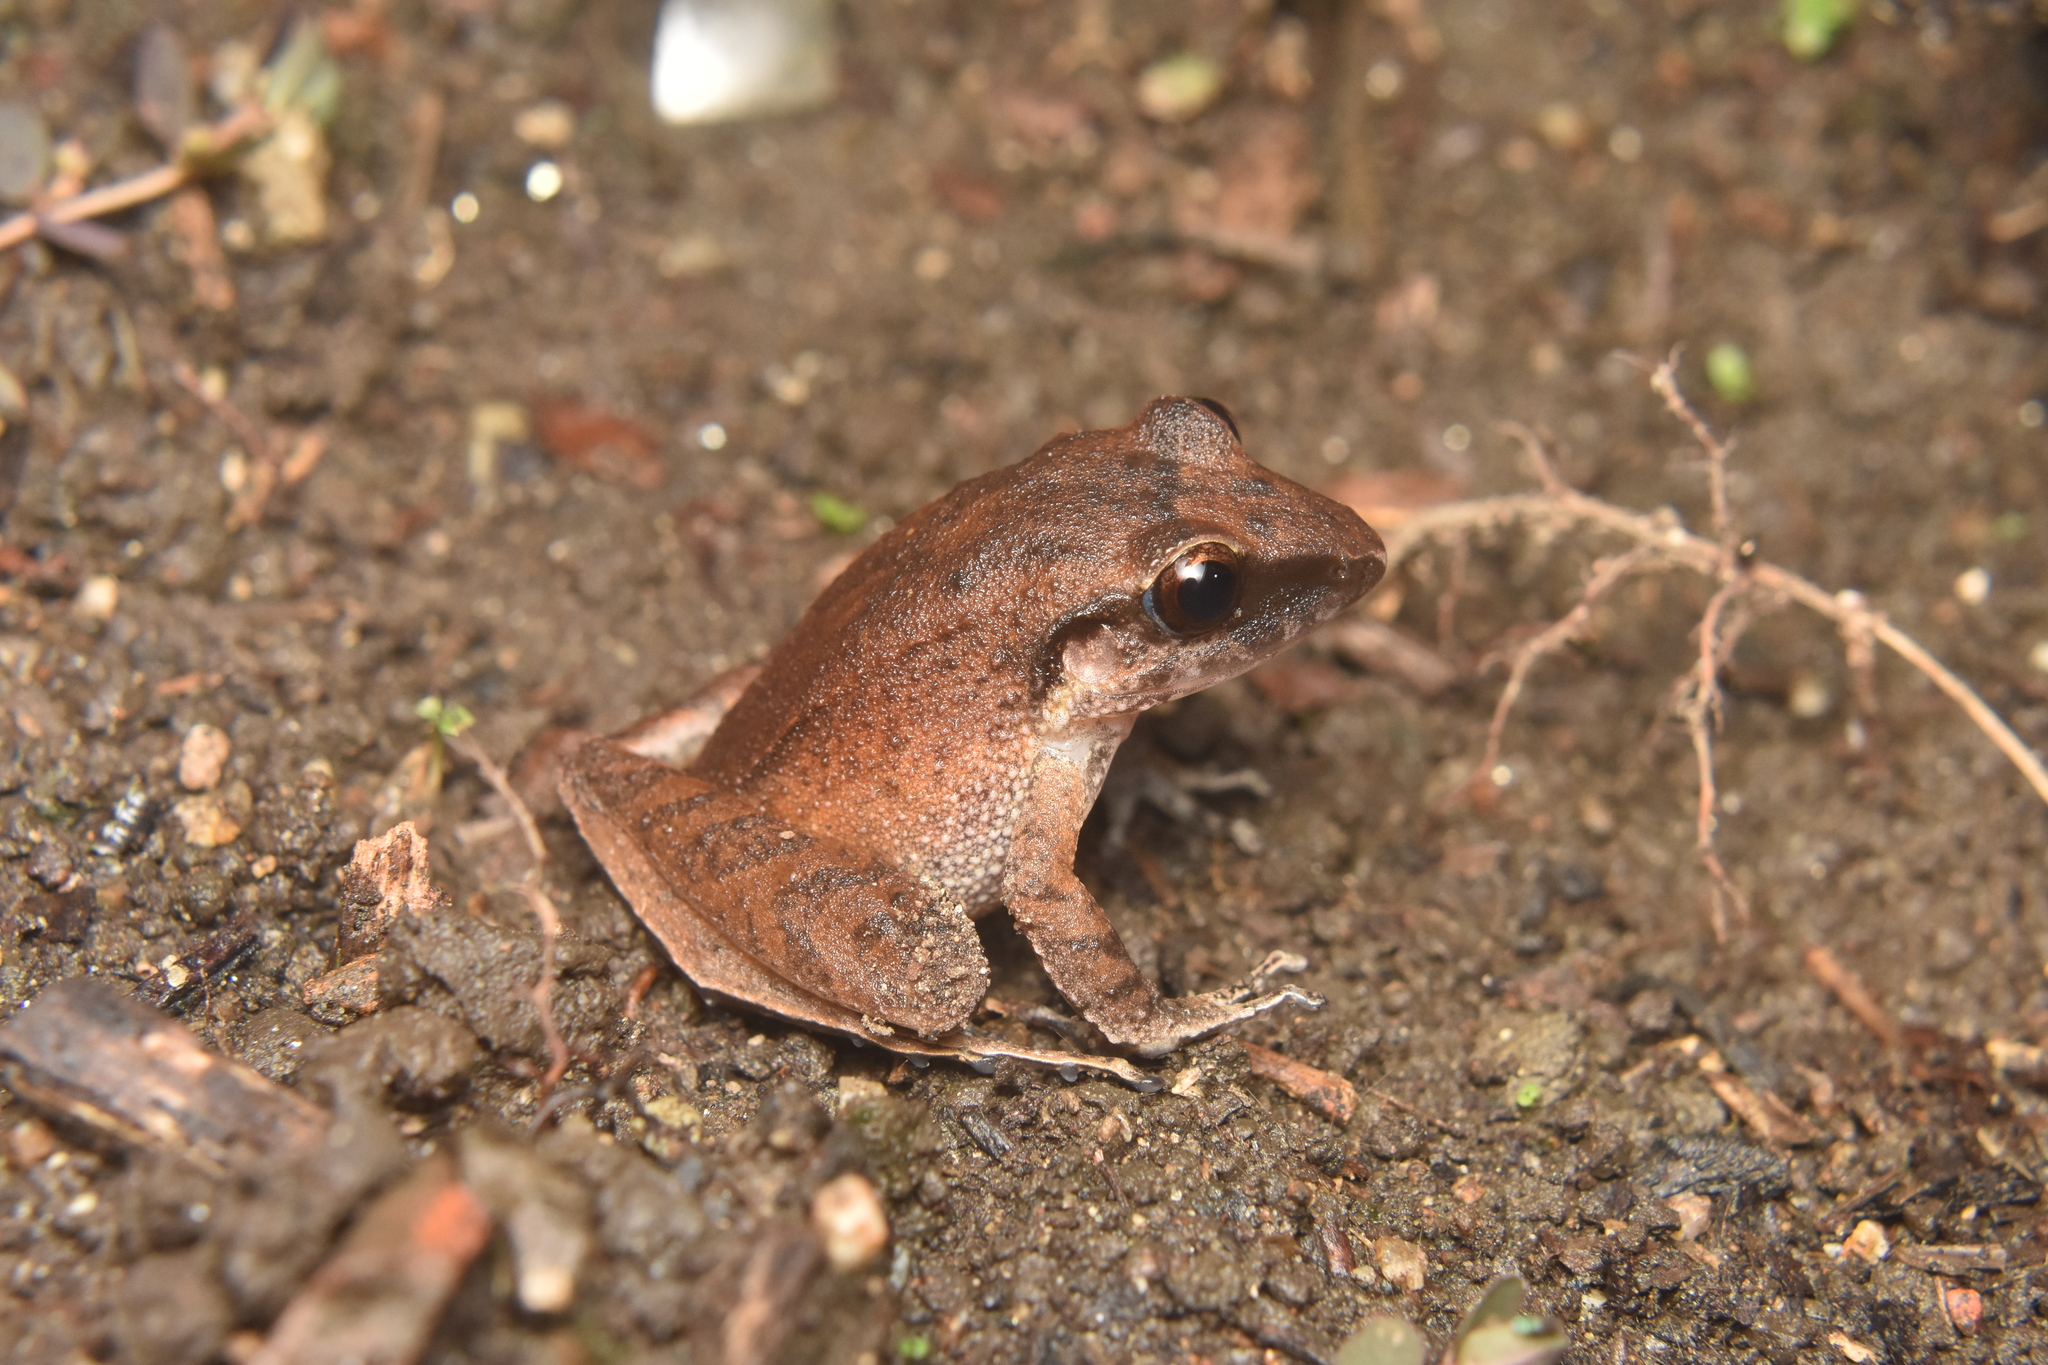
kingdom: Animalia
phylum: Chordata
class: Amphibia
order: Anura
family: Craugastoridae
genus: Pristimantis
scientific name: Pristimantis achatinus
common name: Cachabi robber frog
